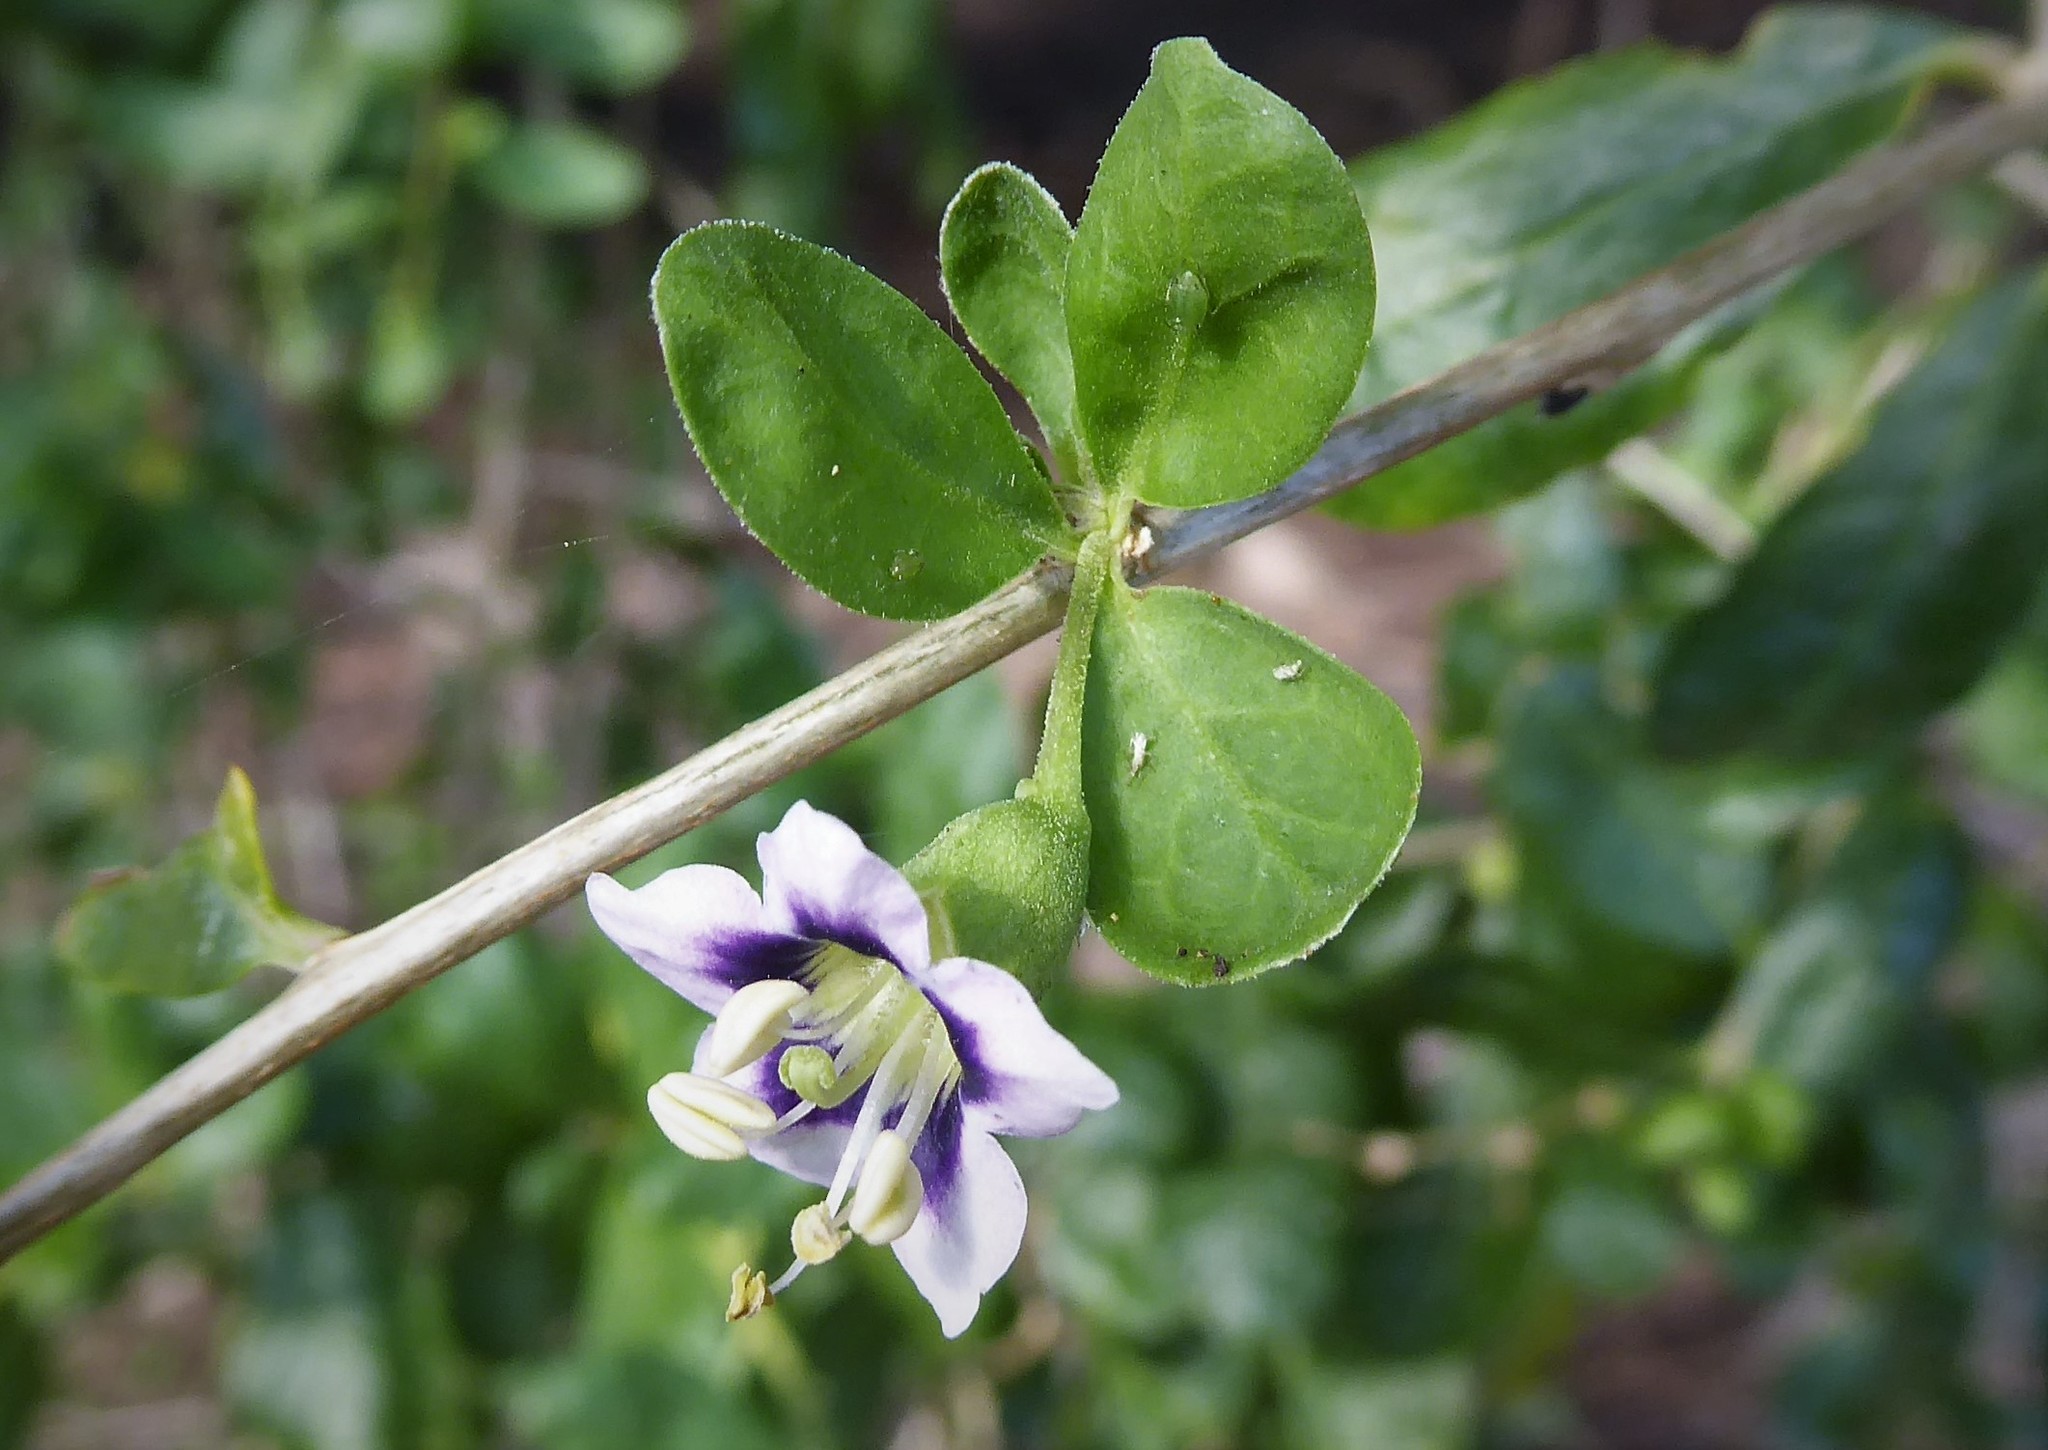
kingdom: Plantae
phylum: Tracheophyta
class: Magnoliopsida
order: Solanales
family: Solanaceae
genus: Lycium
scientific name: Lycium ferocissimum
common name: African boxthorn
